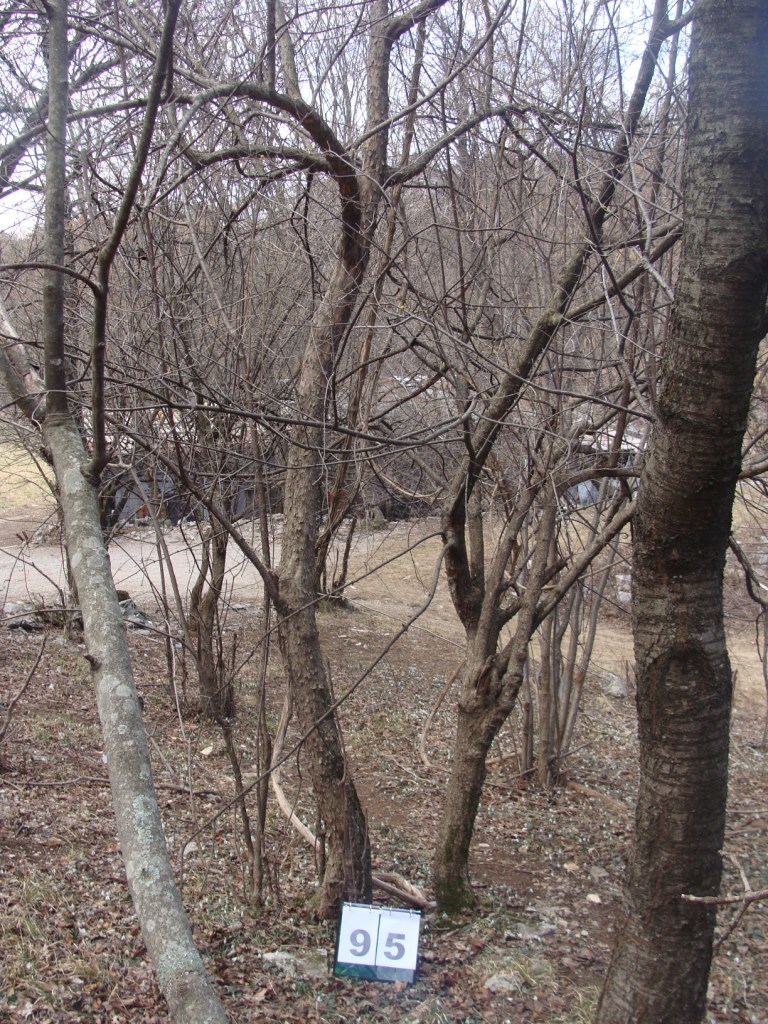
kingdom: Plantae
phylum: Tracheophyta
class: Magnoliopsida
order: Cornales
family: Cornaceae
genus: Cornus
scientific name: Cornus mas
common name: Cornelian-cherry
